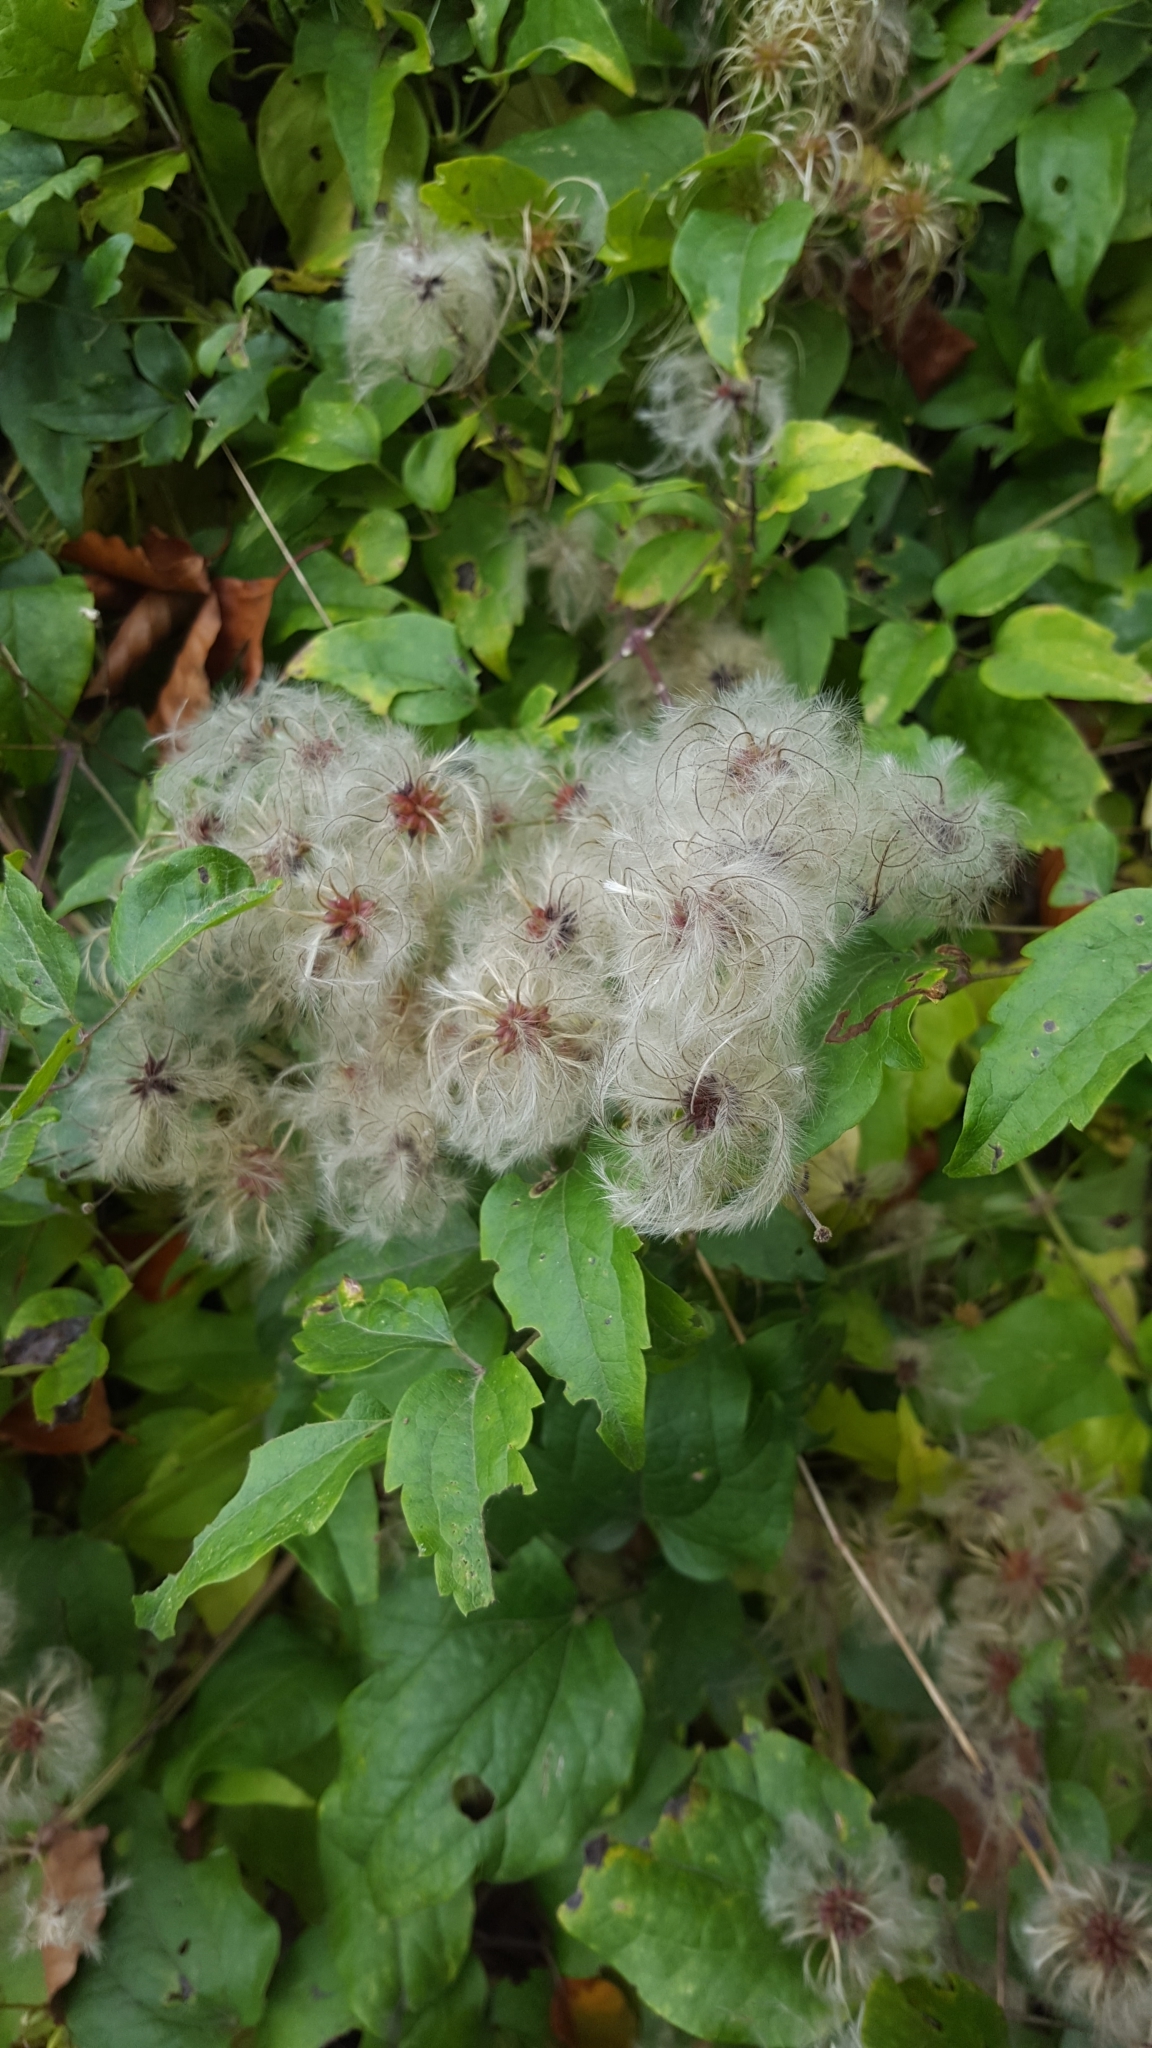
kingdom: Plantae
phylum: Tracheophyta
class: Magnoliopsida
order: Ranunculales
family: Ranunculaceae
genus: Clematis
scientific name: Clematis vitalba
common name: Evergreen clematis
